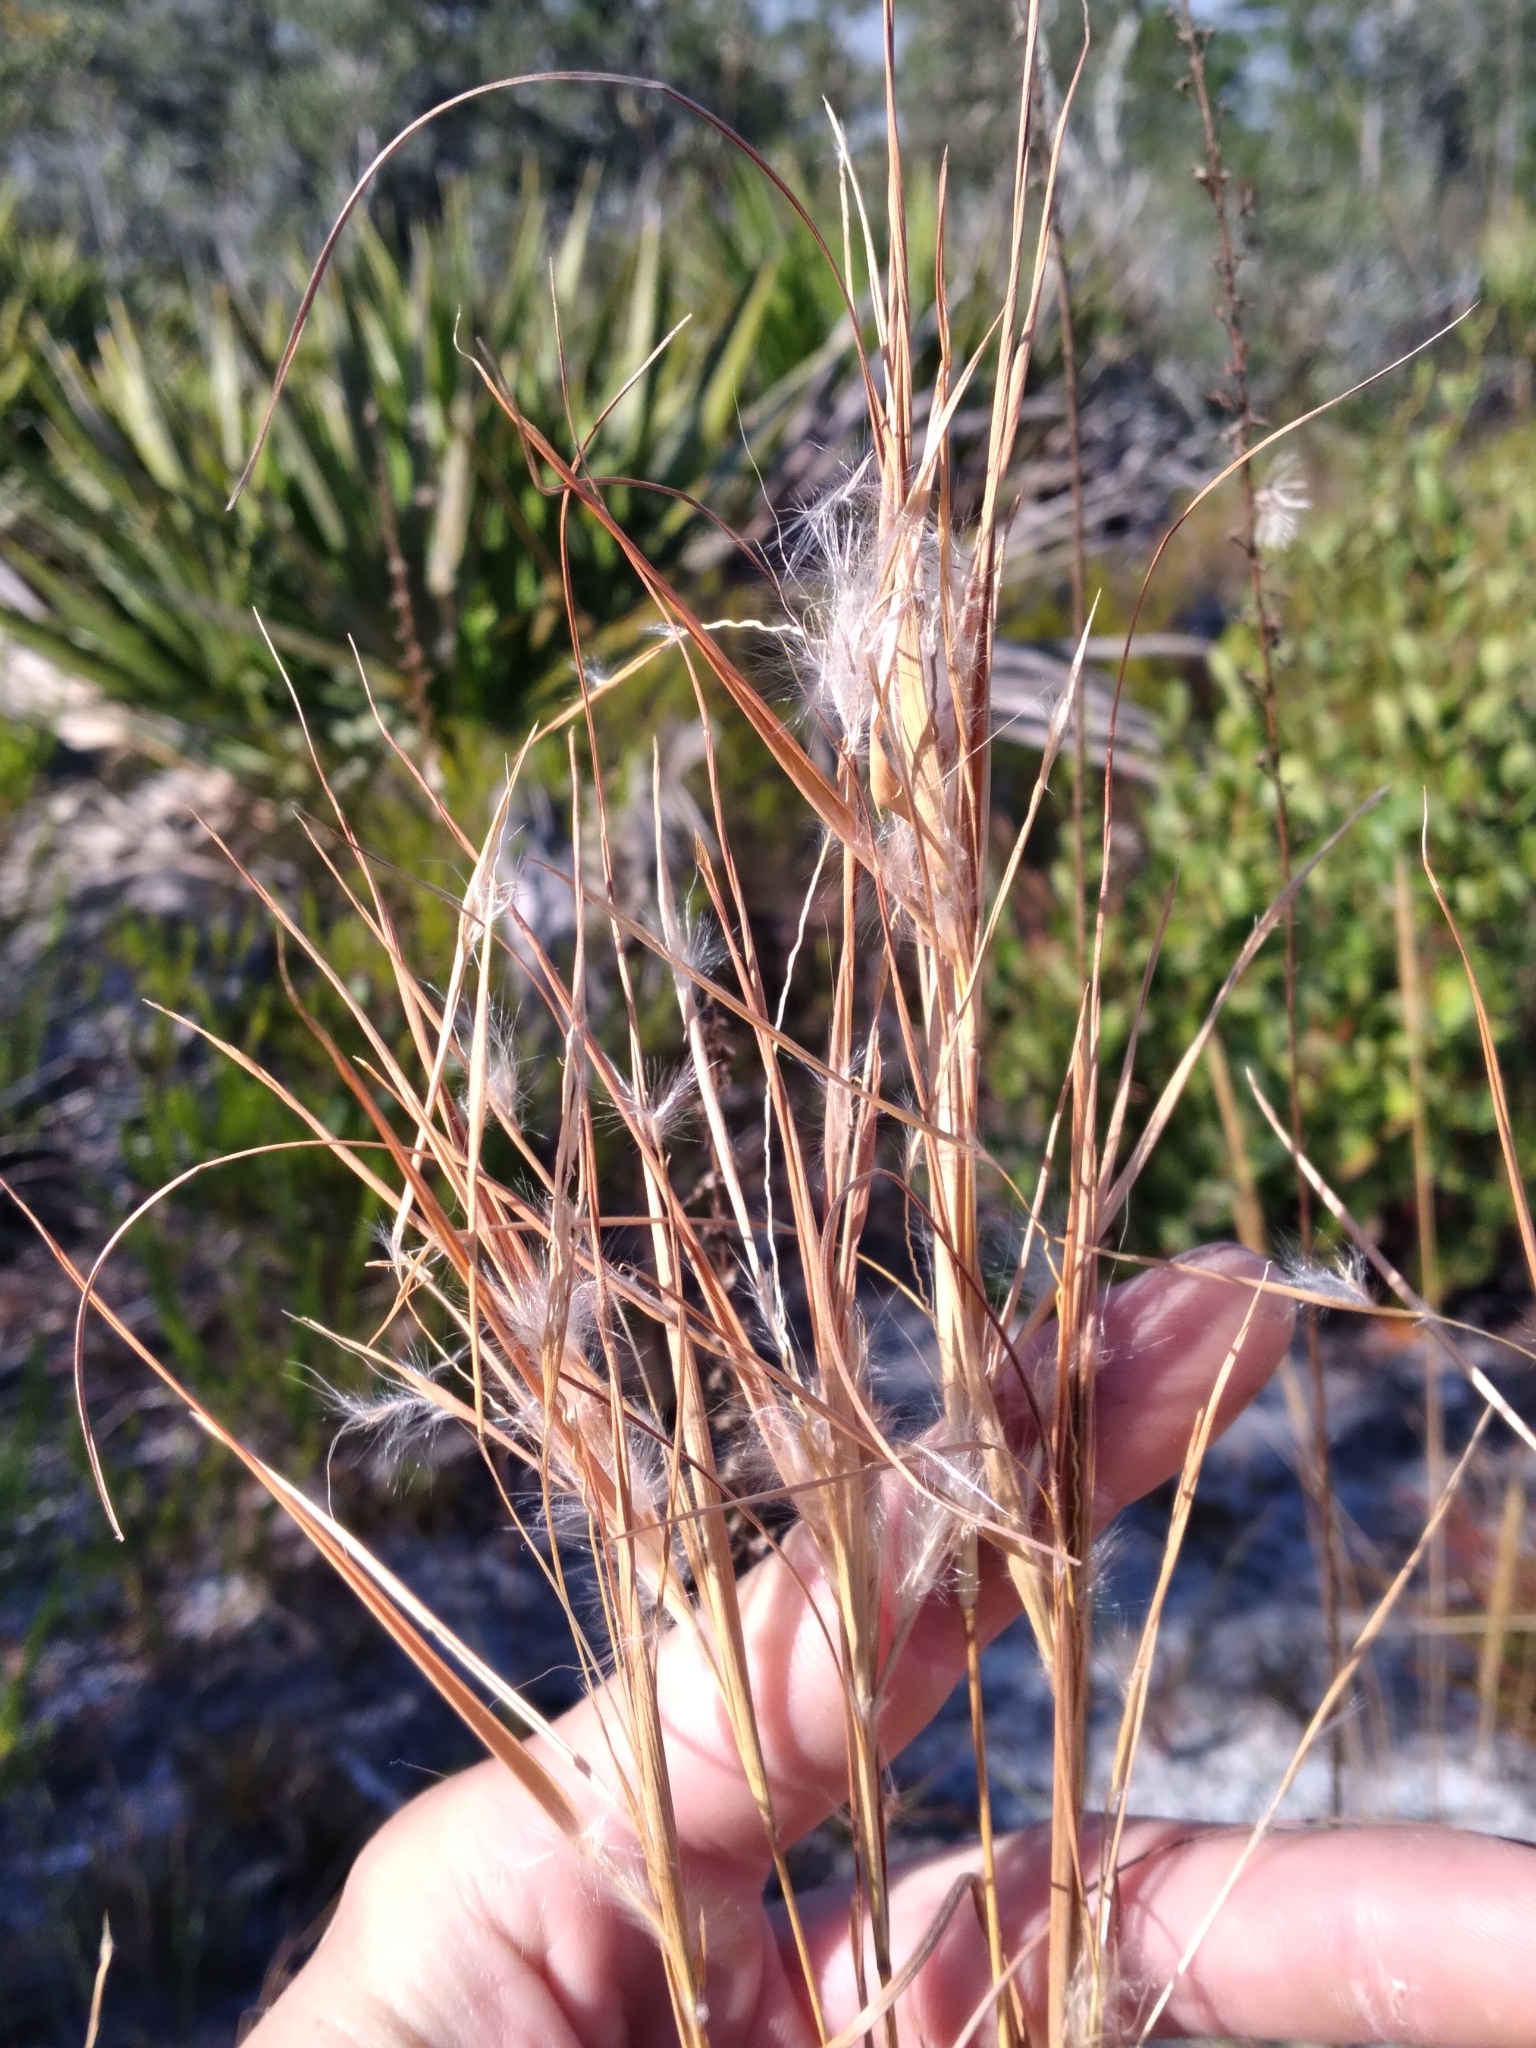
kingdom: Plantae
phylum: Tracheophyta
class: Liliopsida
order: Poales
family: Poaceae
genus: Andropogon
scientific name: Andropogon gyrans
